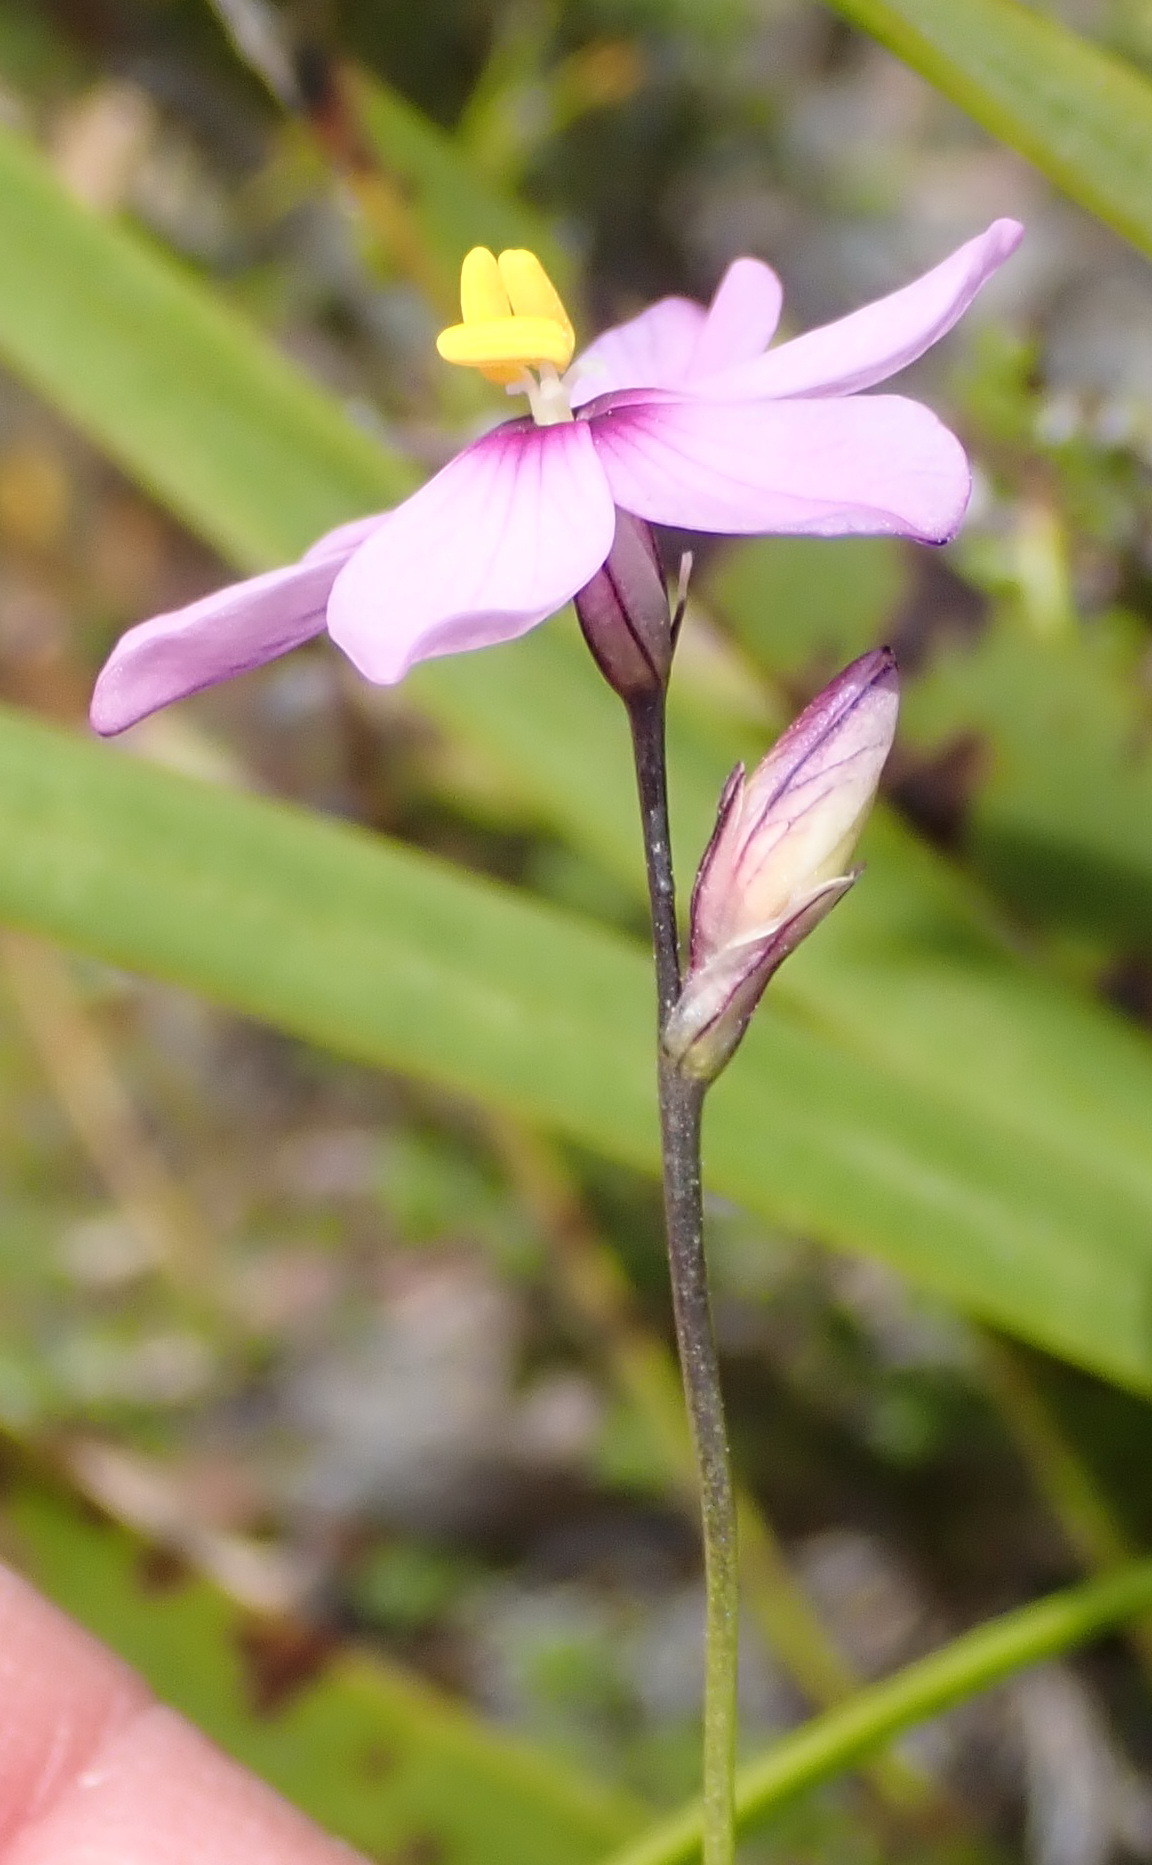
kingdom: Plantae
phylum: Tracheophyta
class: Liliopsida
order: Asparagales
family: Iridaceae
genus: Ixia
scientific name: Ixia confusa
